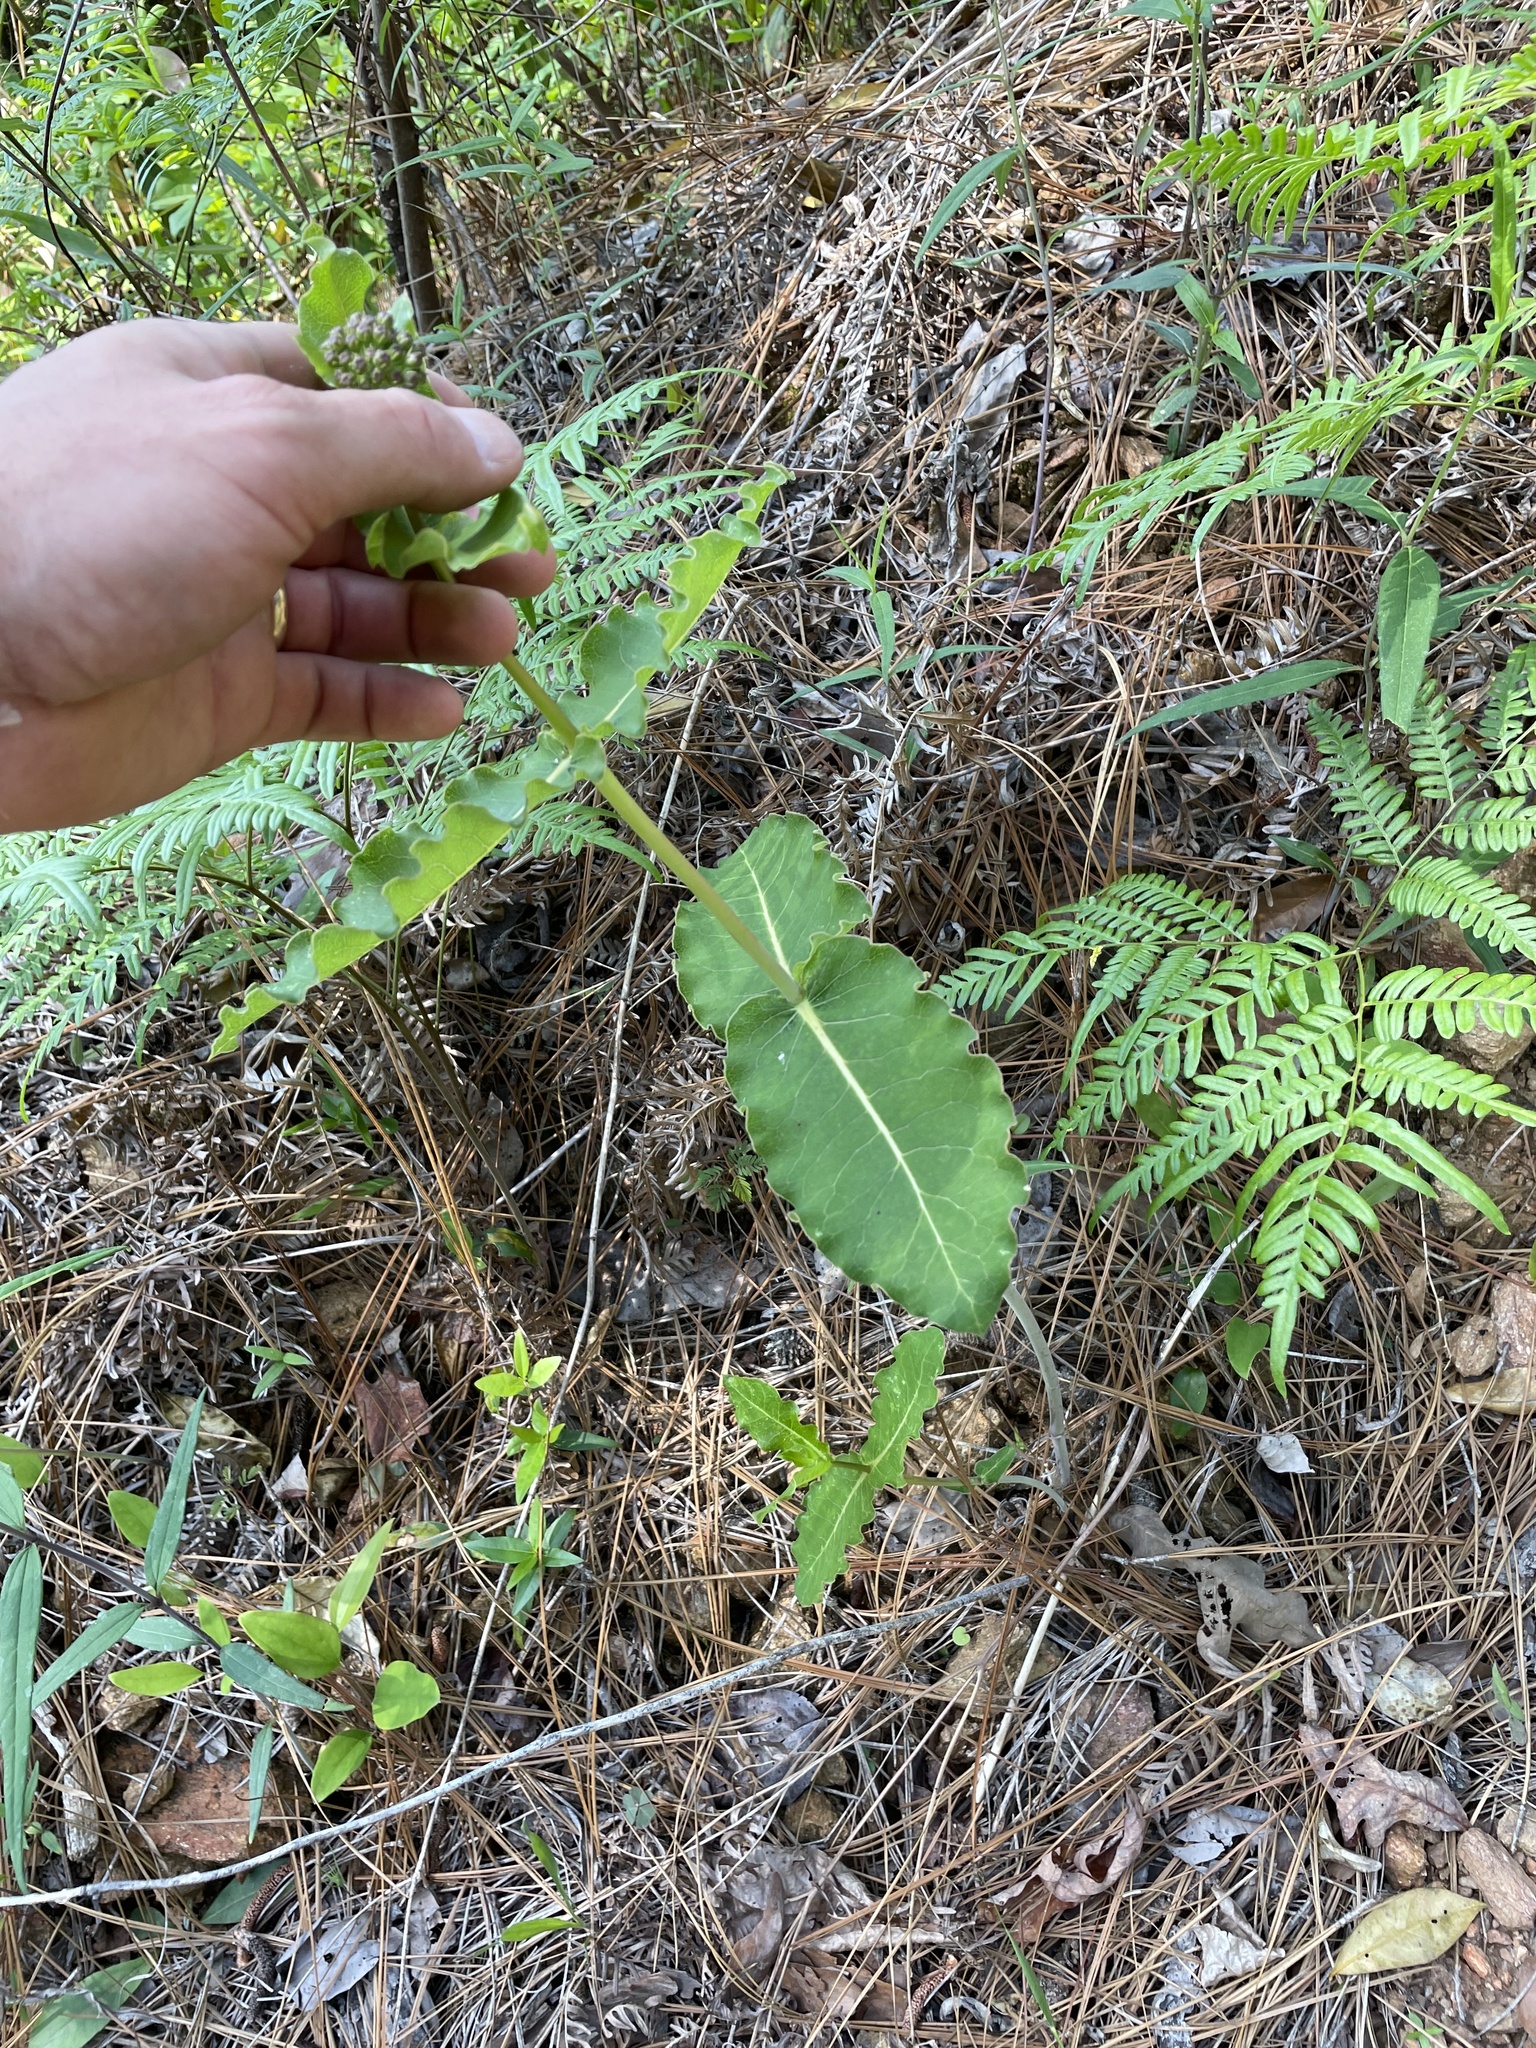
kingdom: Plantae
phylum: Tracheophyta
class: Magnoliopsida
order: Gentianales
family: Apocynaceae
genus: Asclepias
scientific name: Asclepias amplexicaulis
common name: Blunt-leaf milkweed
